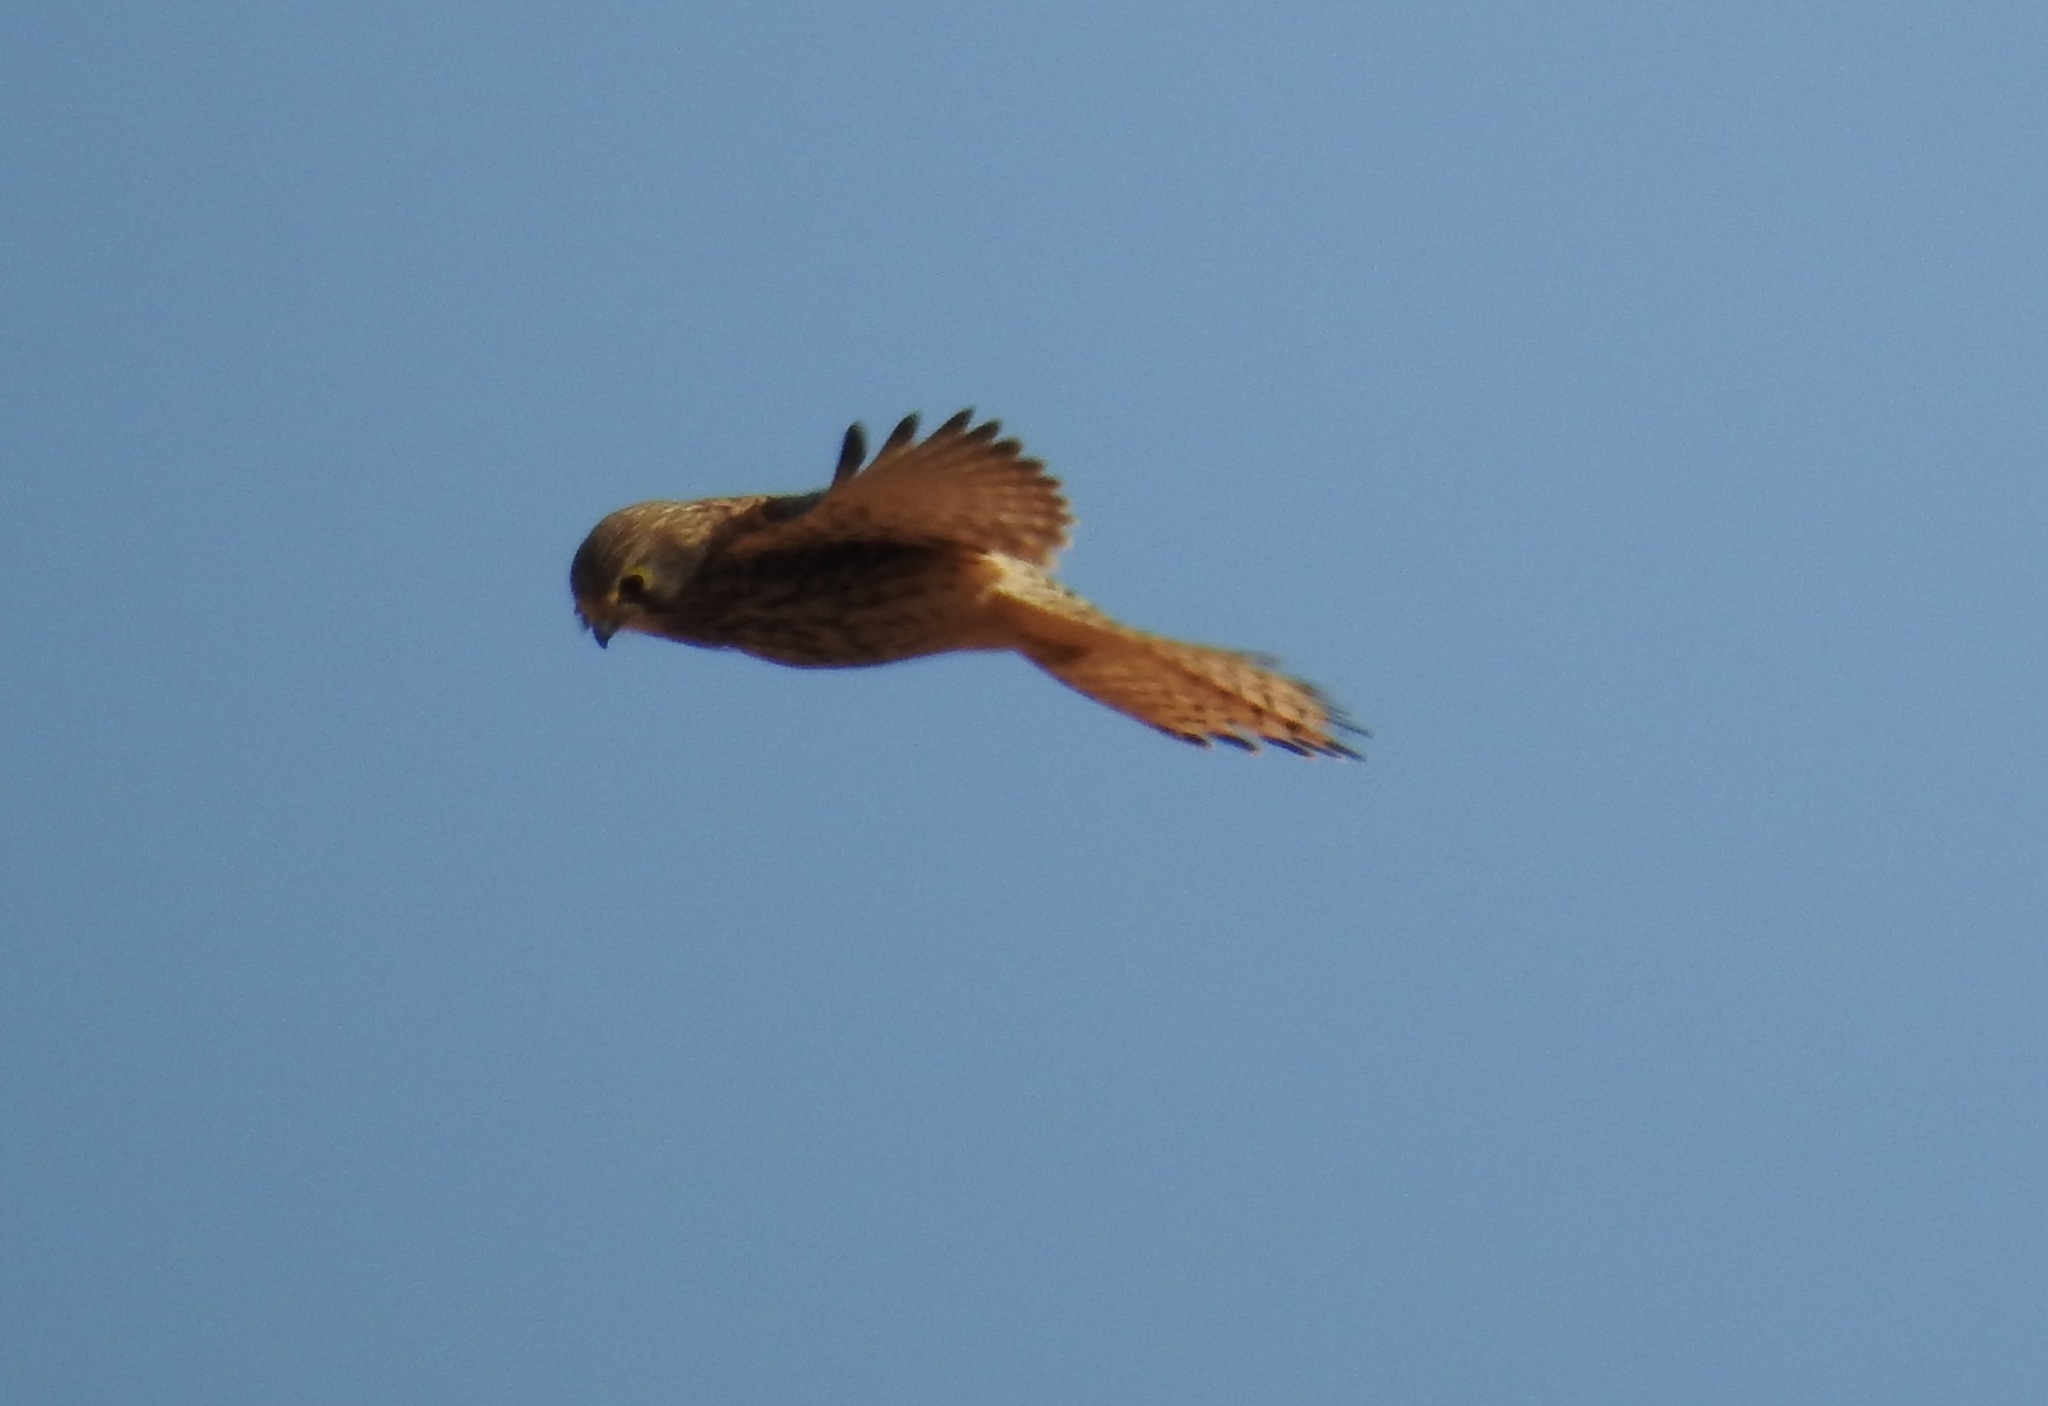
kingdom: Animalia
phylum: Chordata
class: Aves
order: Falconiformes
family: Falconidae
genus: Falco
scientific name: Falco tinnunculus
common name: Common kestrel
